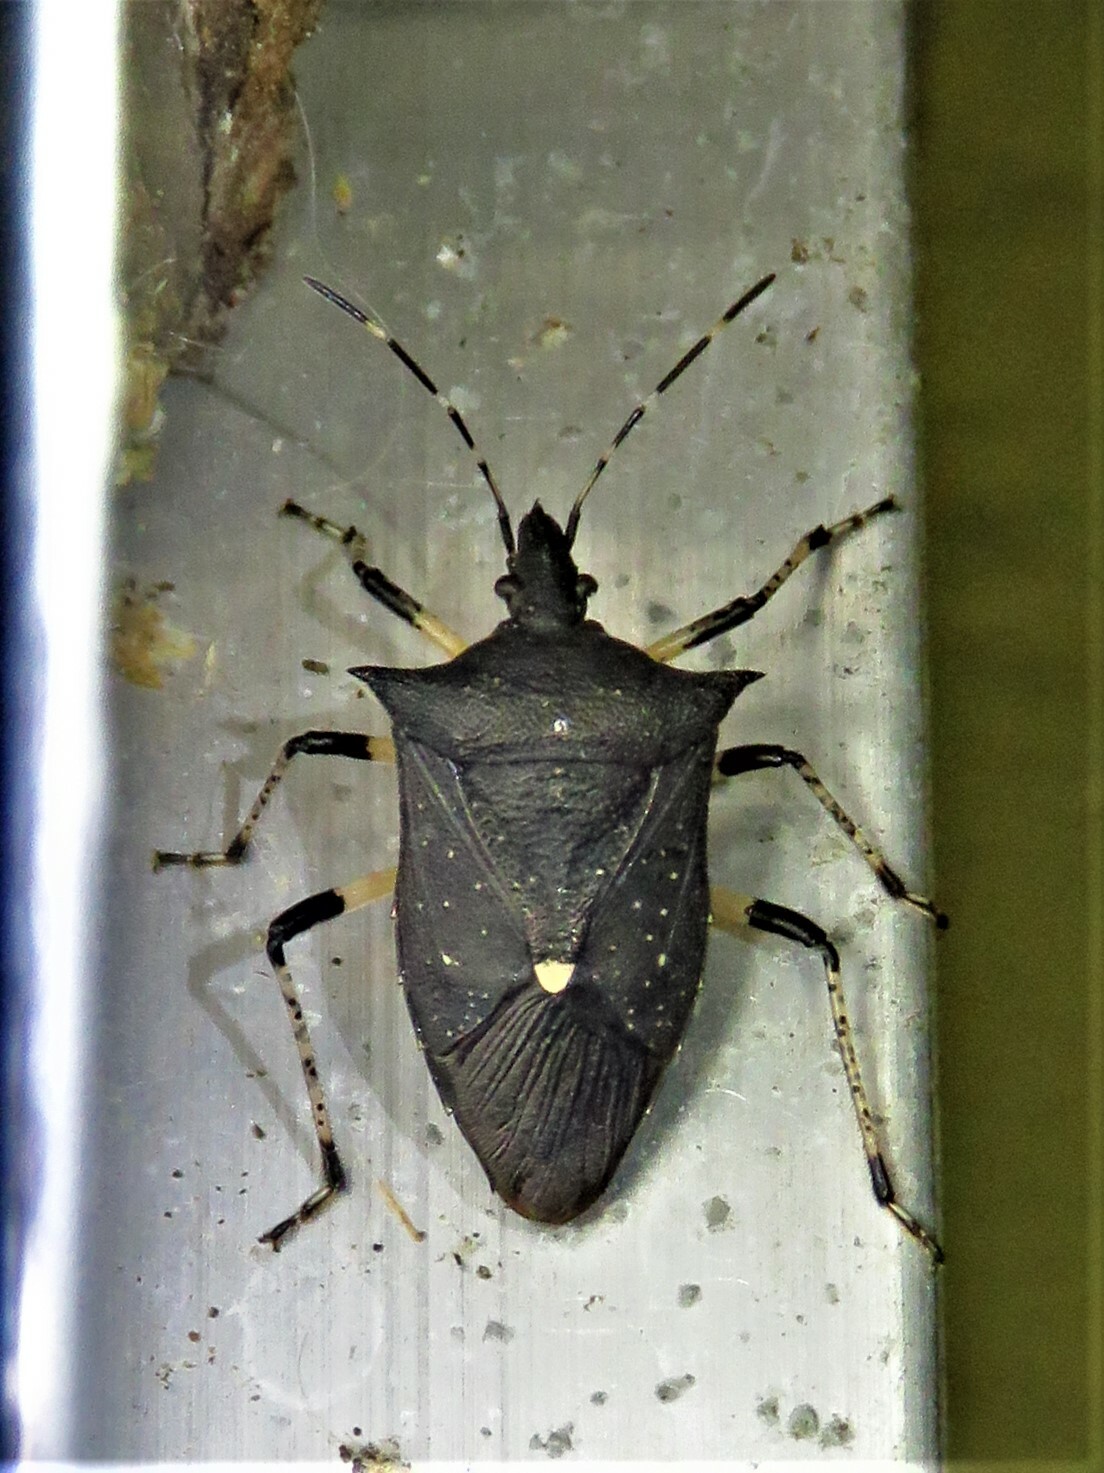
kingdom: Animalia
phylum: Arthropoda
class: Insecta
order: Hemiptera
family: Pentatomidae
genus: Proxys
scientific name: Proxys punctulatus
